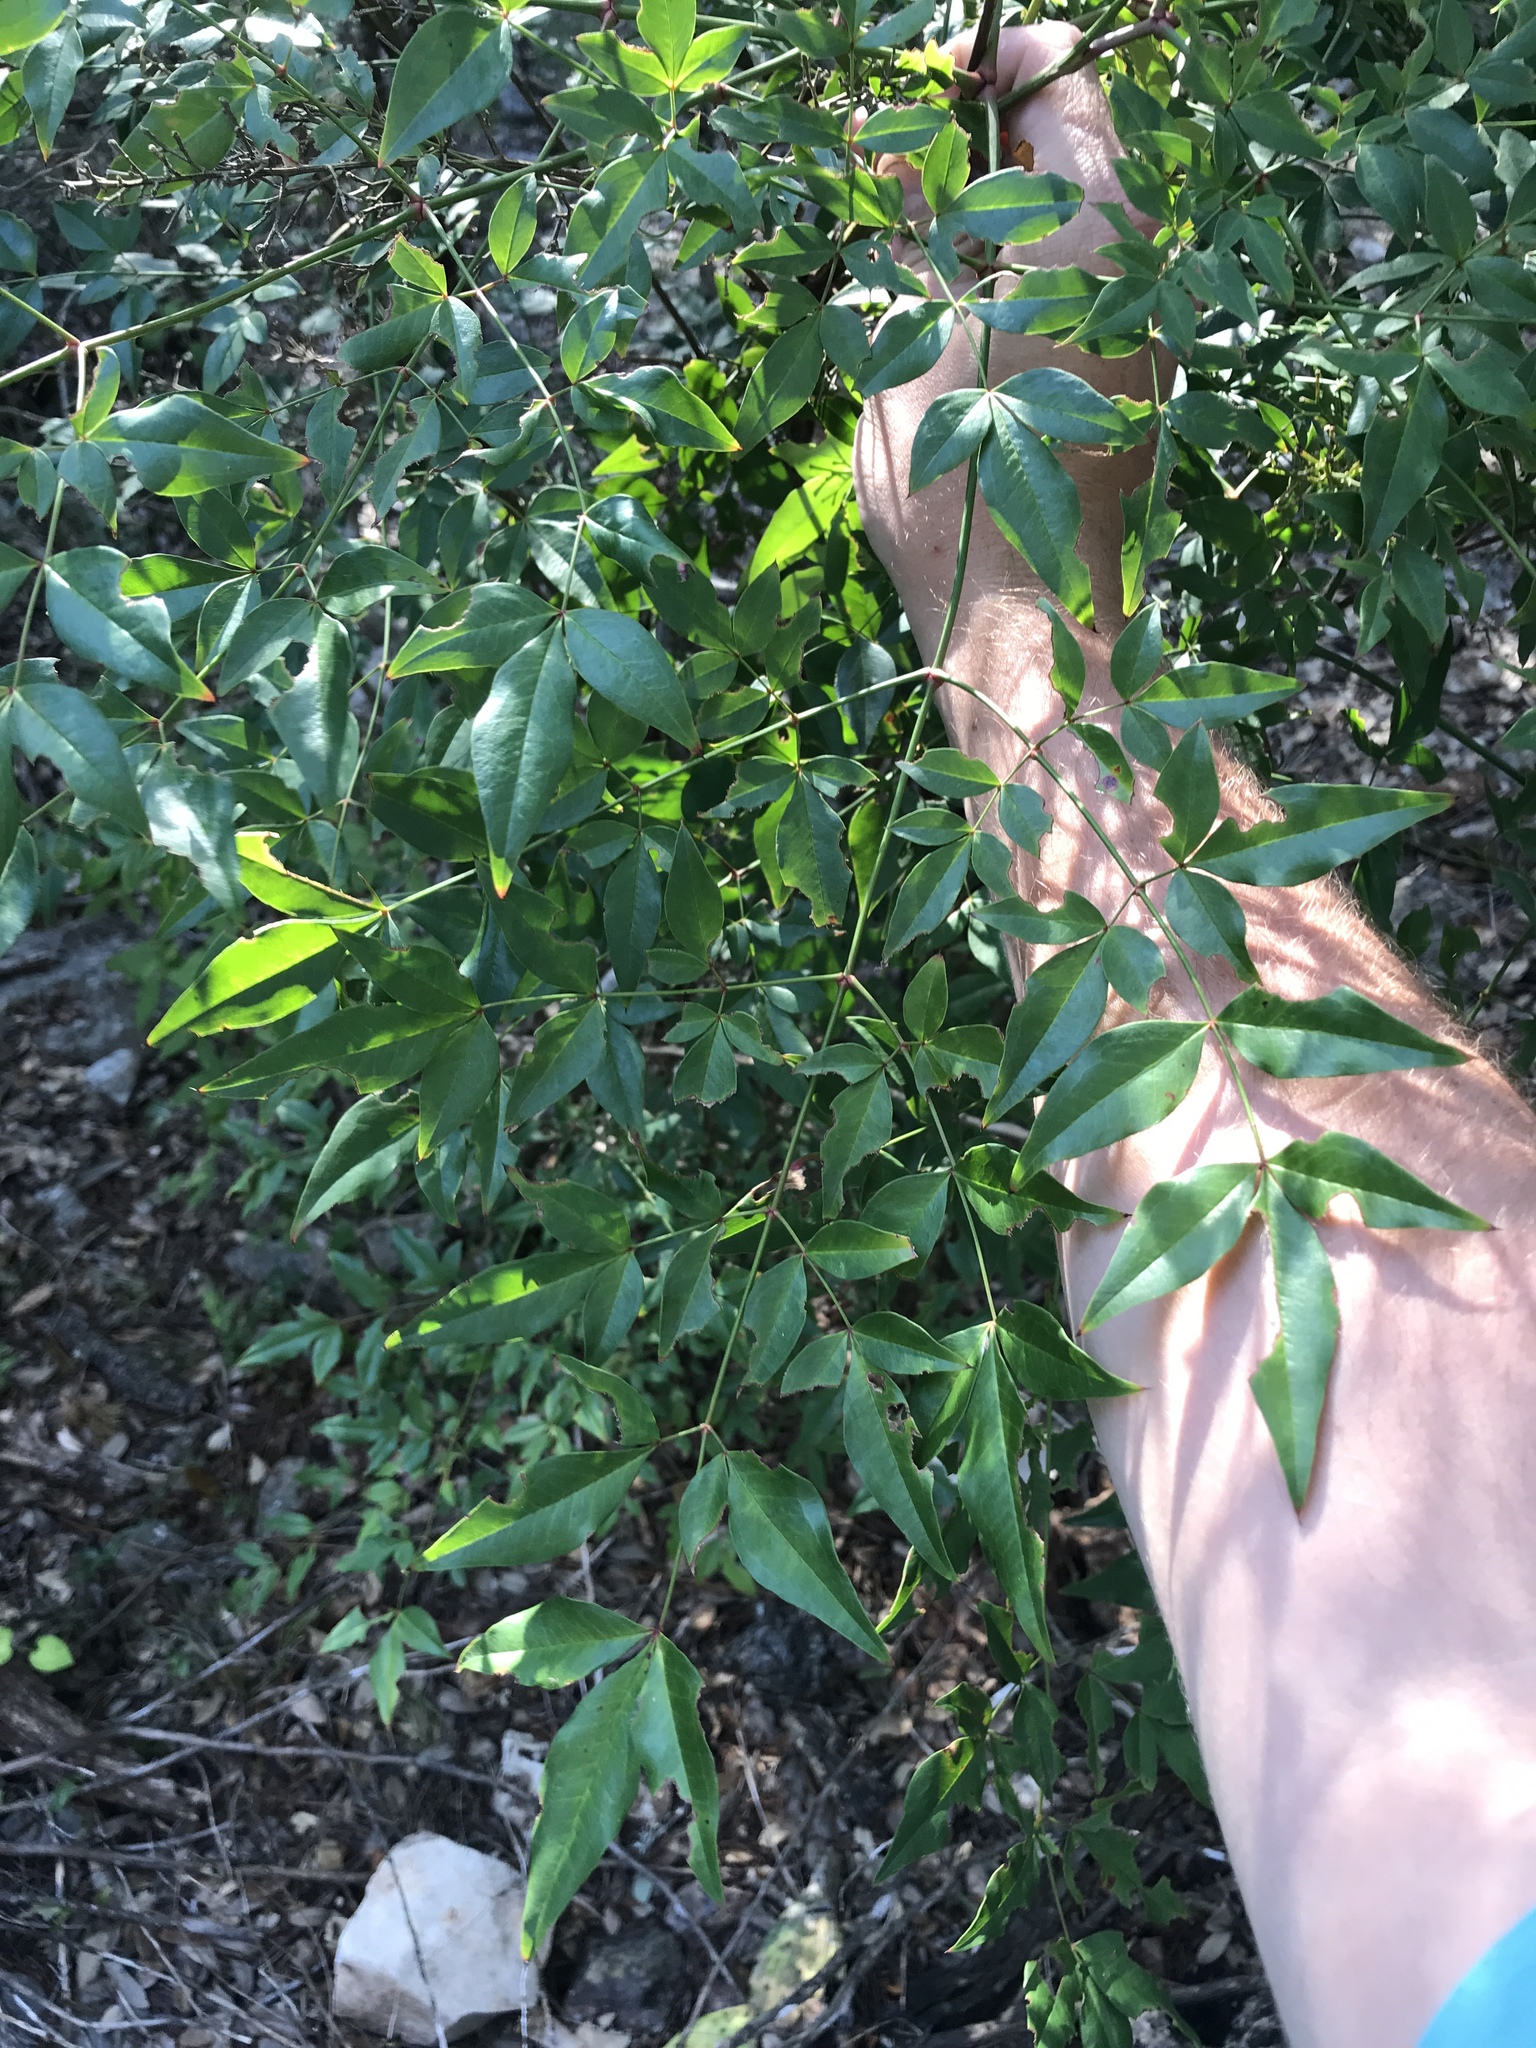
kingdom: Plantae
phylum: Tracheophyta
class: Magnoliopsida
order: Ranunculales
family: Berberidaceae
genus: Nandina
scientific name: Nandina domestica
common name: Sacred bamboo
